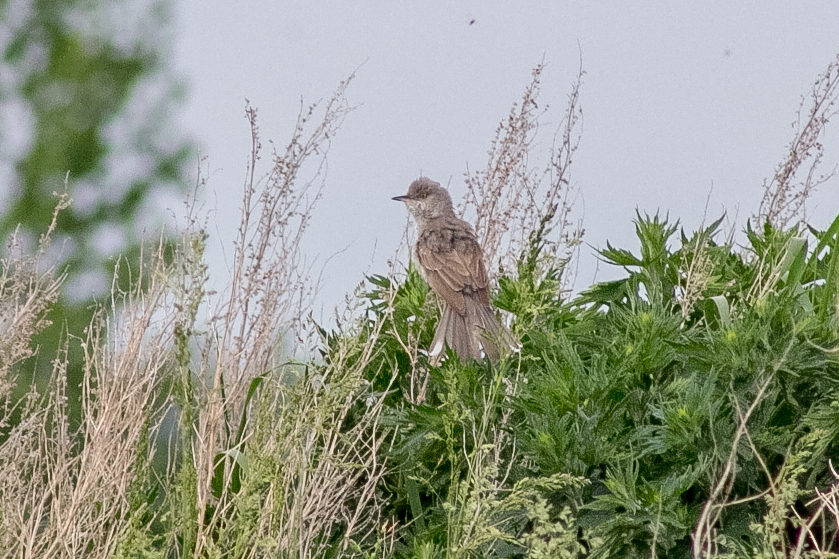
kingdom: Animalia
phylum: Chordata
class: Aves
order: Passeriformes
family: Sylviidae
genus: Sylvia
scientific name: Sylvia nisoria
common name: Barred warbler
